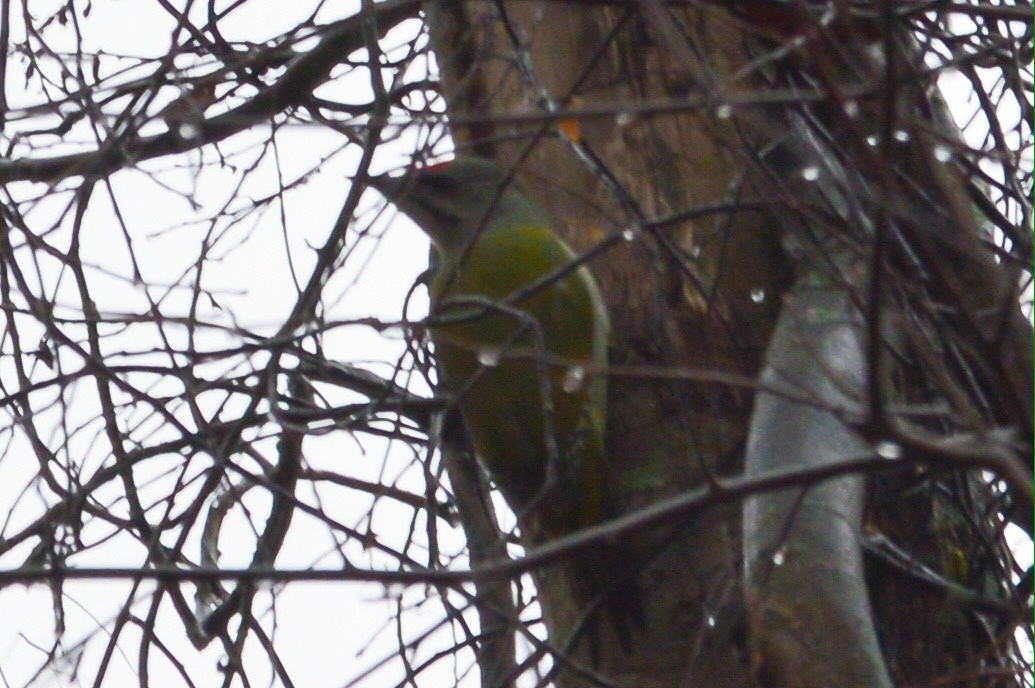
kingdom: Animalia
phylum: Chordata
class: Aves
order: Piciformes
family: Picidae
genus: Picus
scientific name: Picus canus
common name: Grey-headed woodpecker
